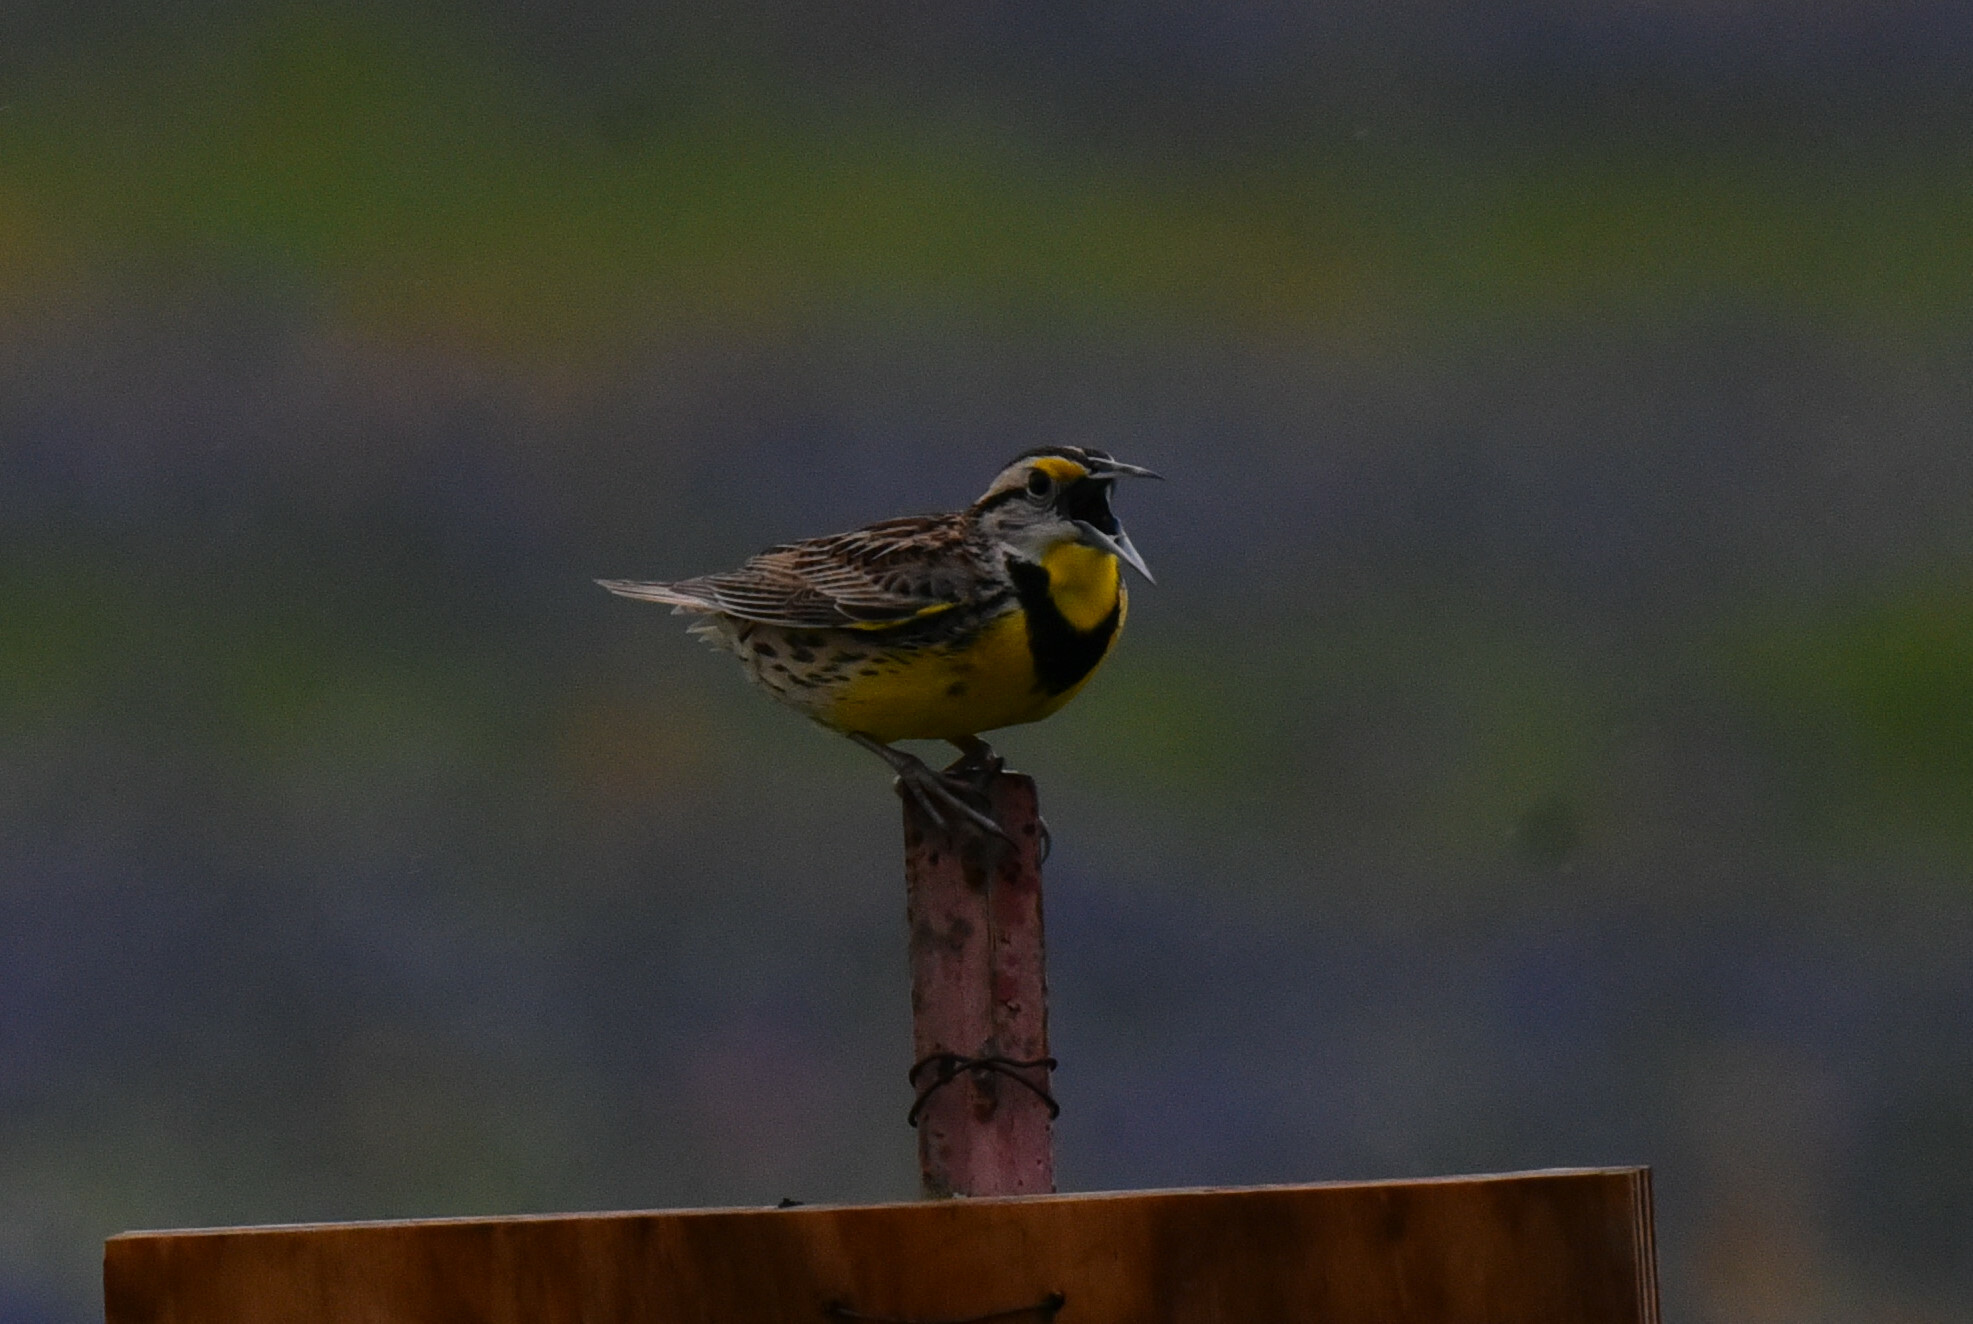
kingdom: Animalia
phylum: Chordata
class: Aves
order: Passeriformes
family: Icteridae
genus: Sturnella
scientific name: Sturnella magna
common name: Eastern meadowlark
